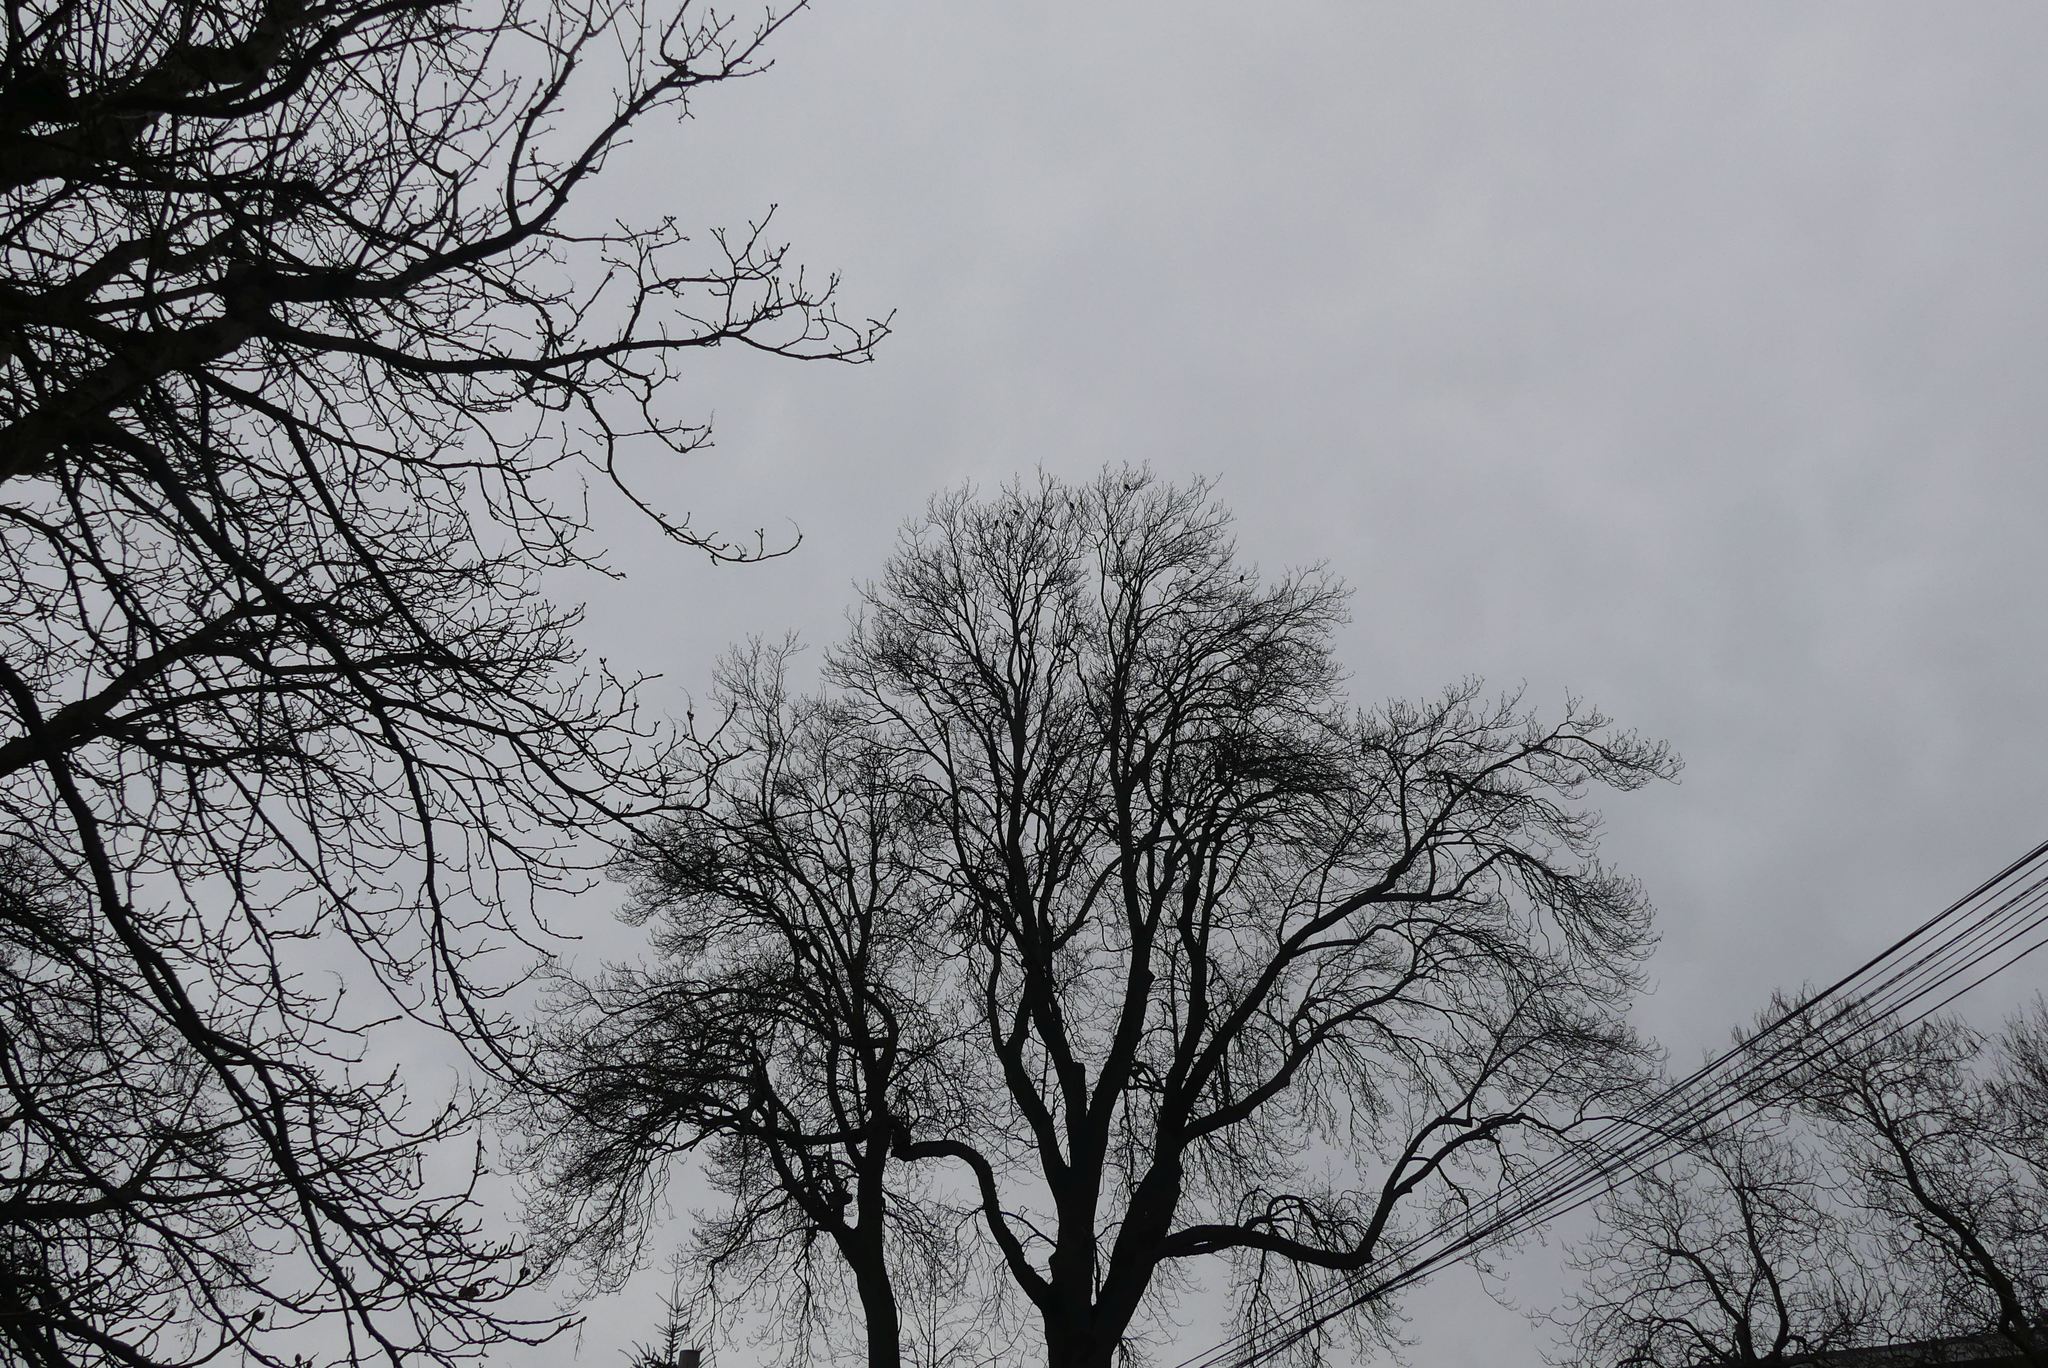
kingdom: Animalia
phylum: Chordata
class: Aves
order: Passeriformes
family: Sturnidae
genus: Sturnus
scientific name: Sturnus vulgaris
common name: Common starling
